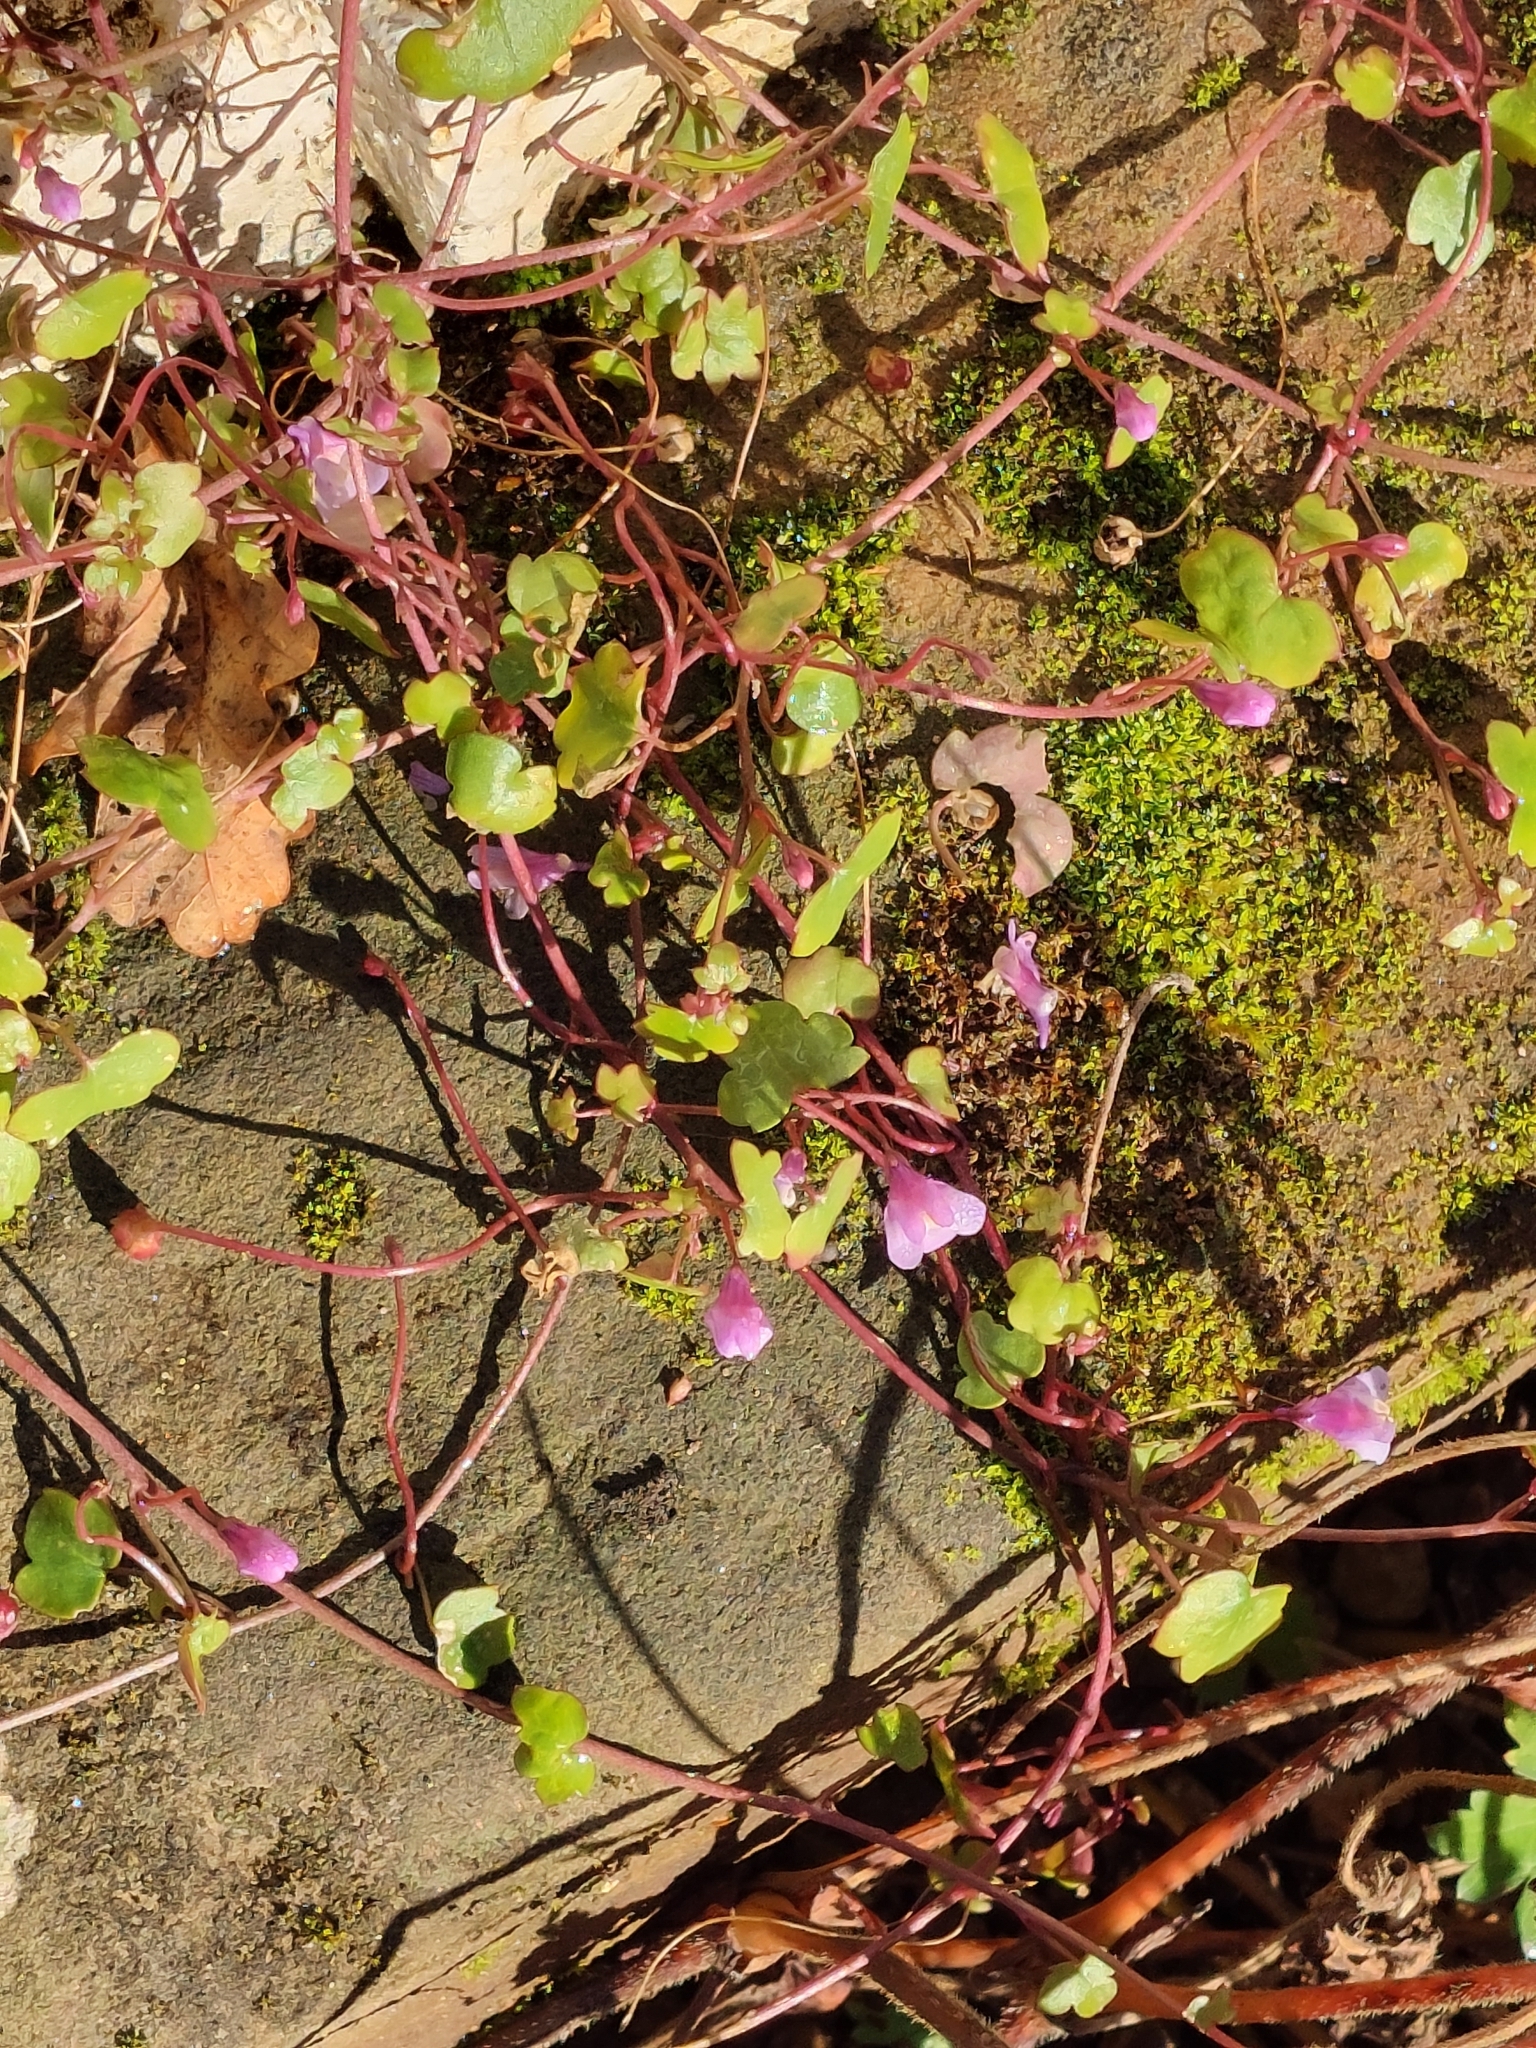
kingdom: Plantae
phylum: Tracheophyta
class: Magnoliopsida
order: Lamiales
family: Plantaginaceae
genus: Cymbalaria
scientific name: Cymbalaria muralis
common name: Ivy-leaved toadflax
